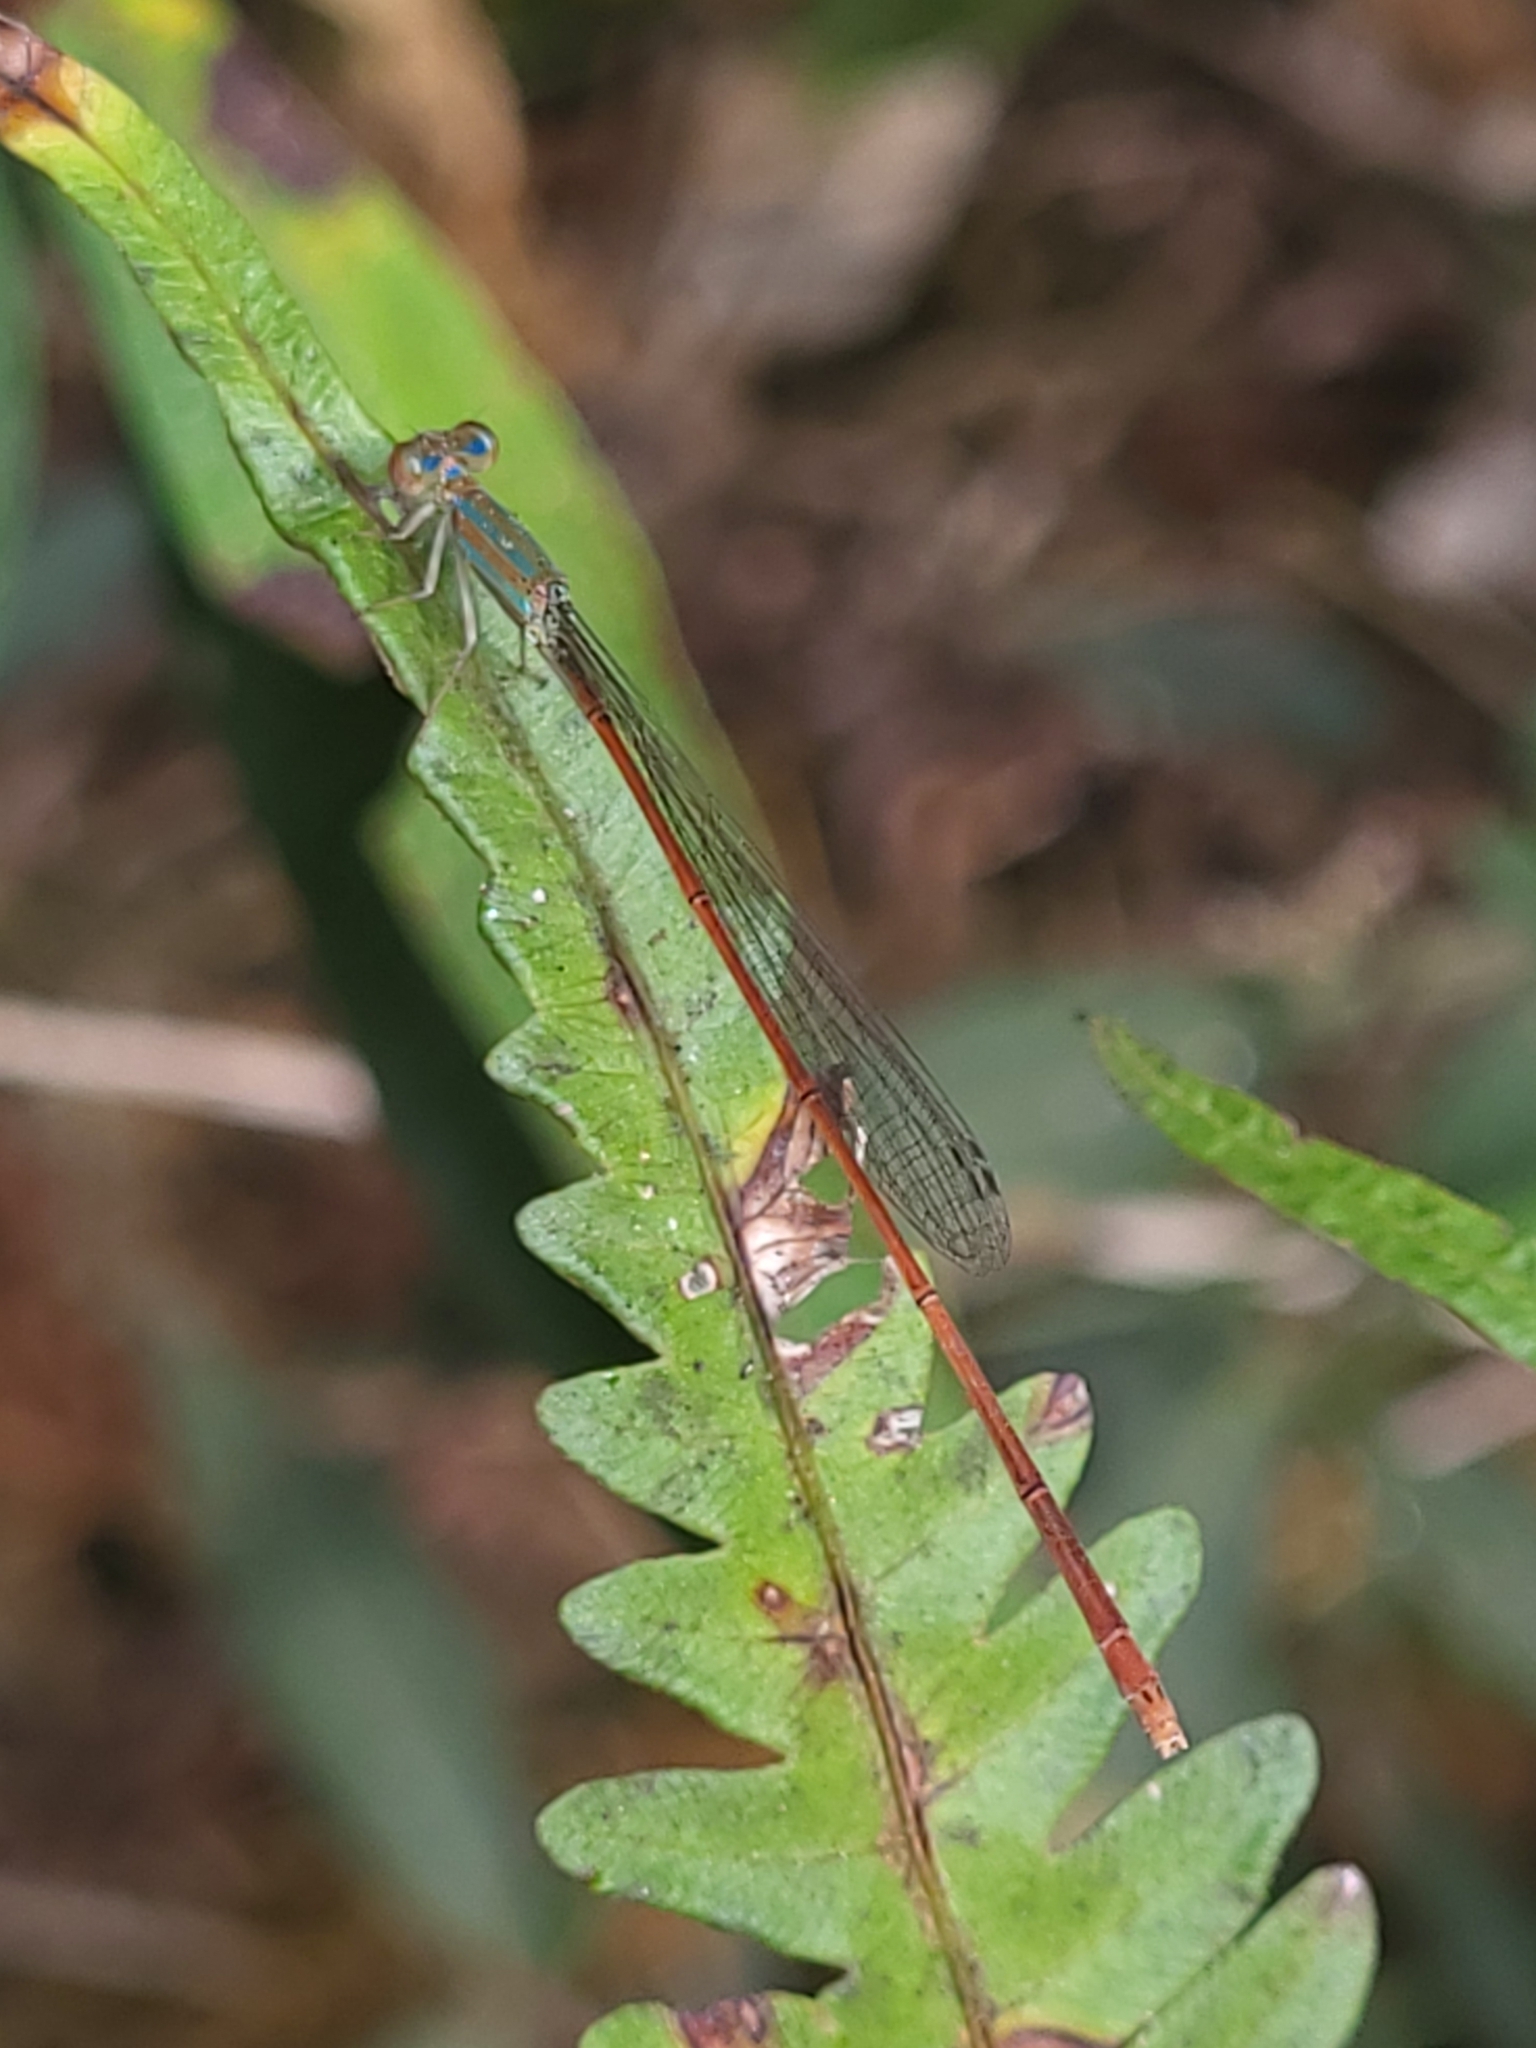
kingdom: Animalia
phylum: Arthropoda
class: Insecta
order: Odonata
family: Coenagrionidae
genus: Aciagrion
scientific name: Aciagrion pallidum
